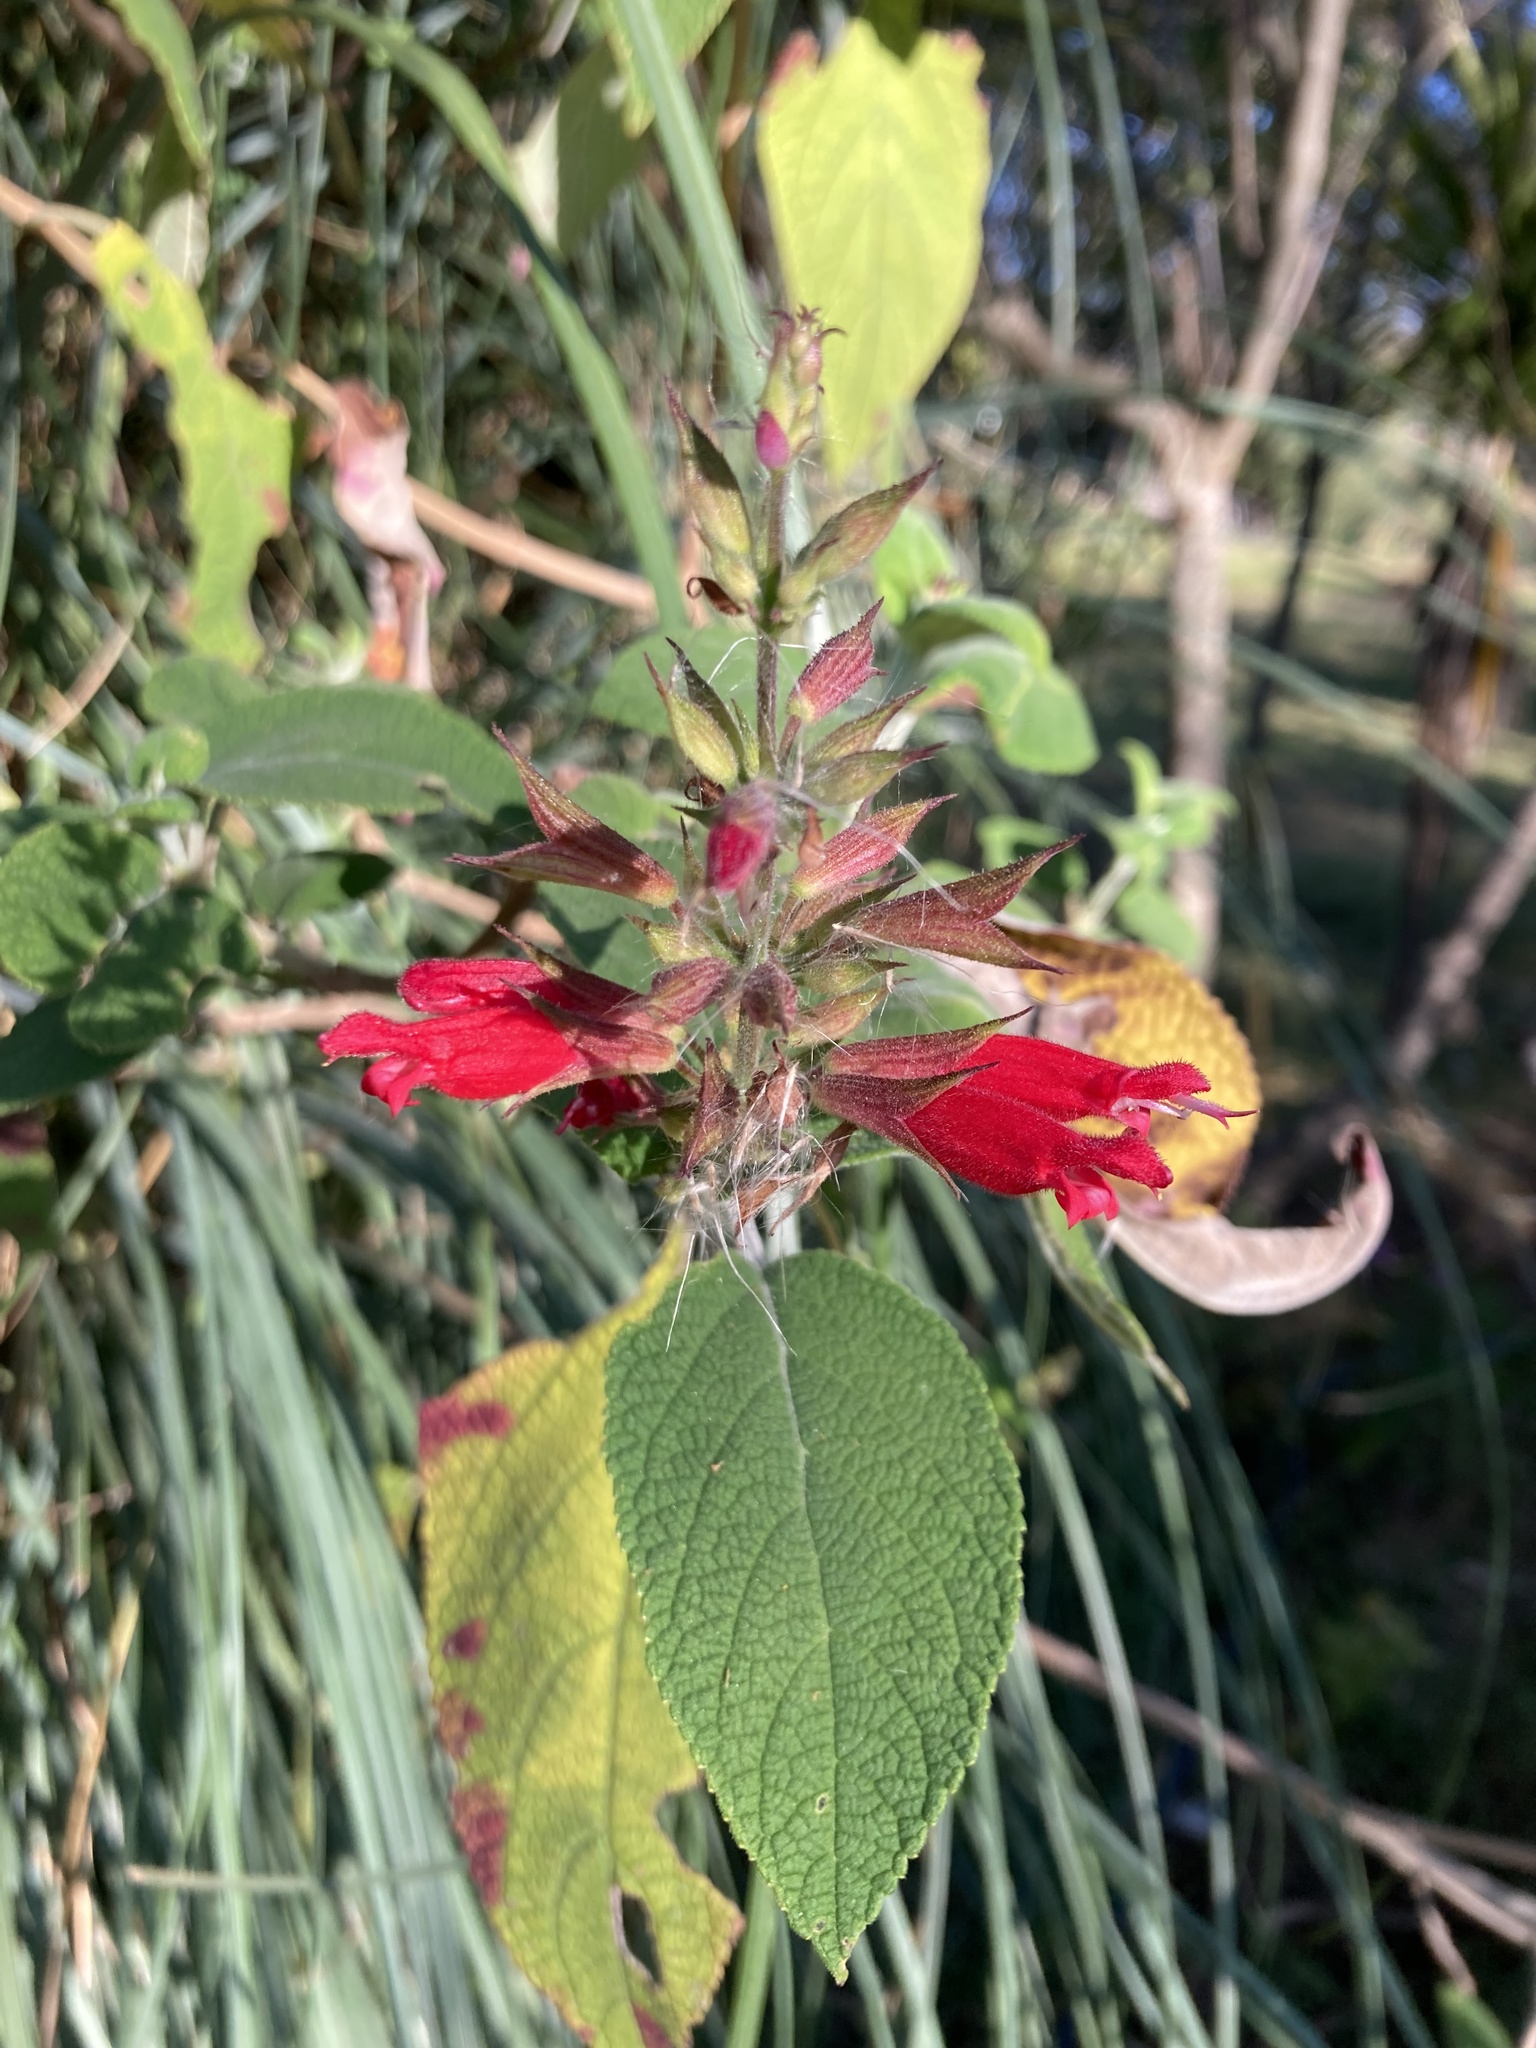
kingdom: Plantae
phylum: Tracheophyta
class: Magnoliopsida
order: Lamiales
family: Lamiaceae
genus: Salvia
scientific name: Salvia karwinskii
